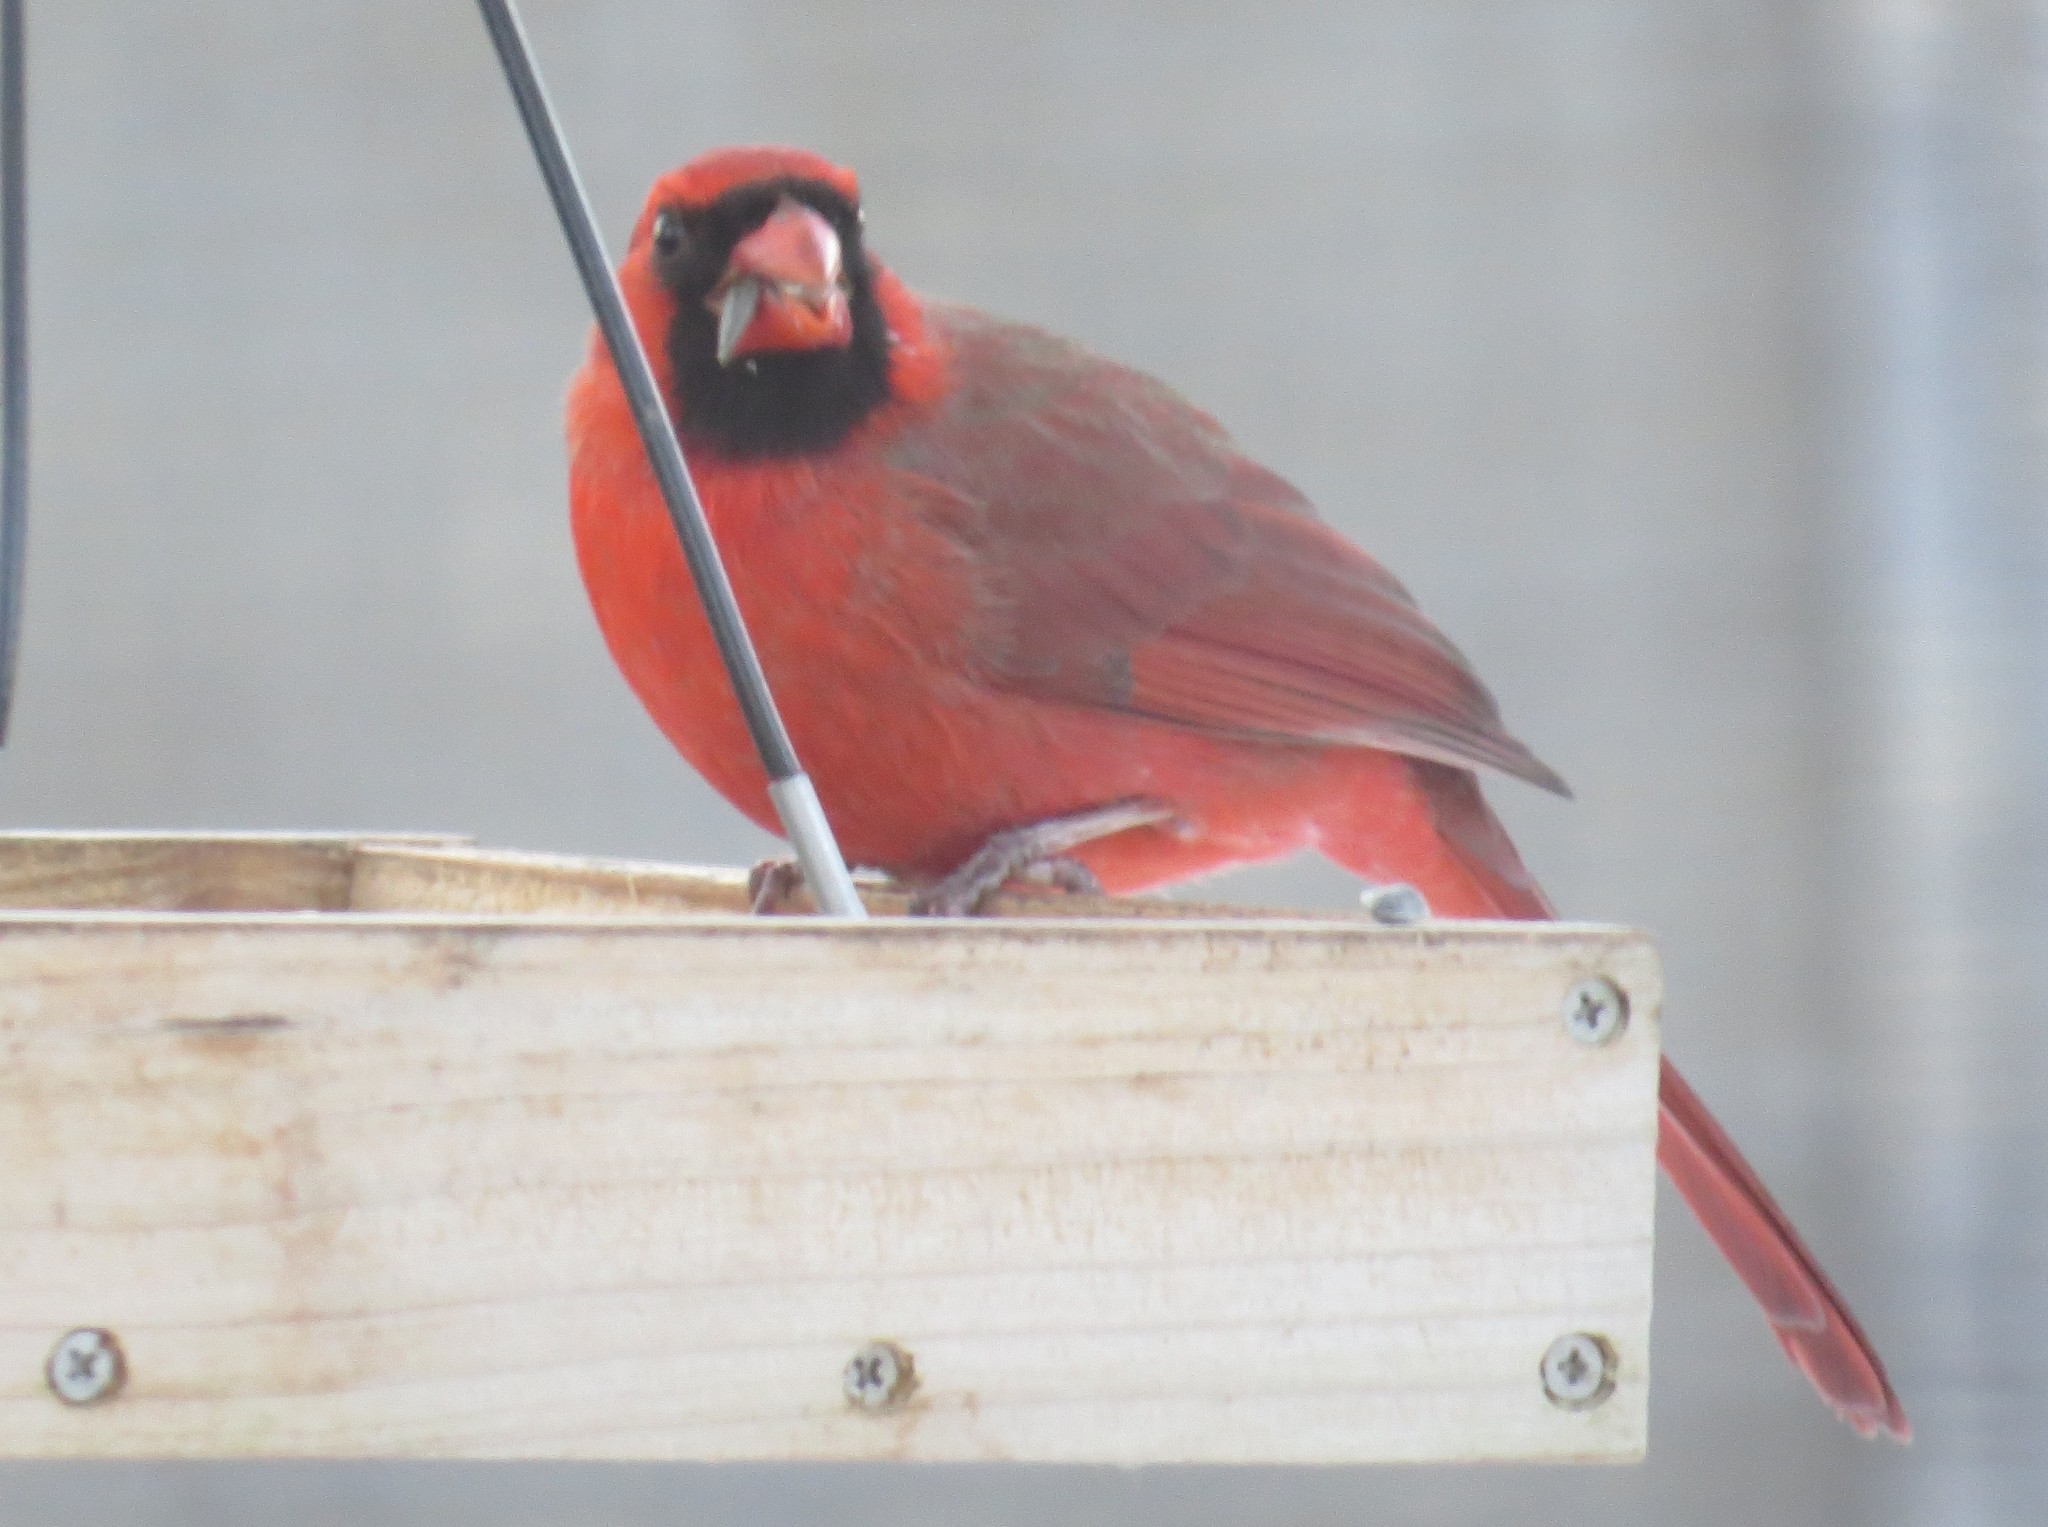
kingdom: Animalia
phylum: Chordata
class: Aves
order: Passeriformes
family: Cardinalidae
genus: Cardinalis
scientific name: Cardinalis cardinalis
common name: Northern cardinal
